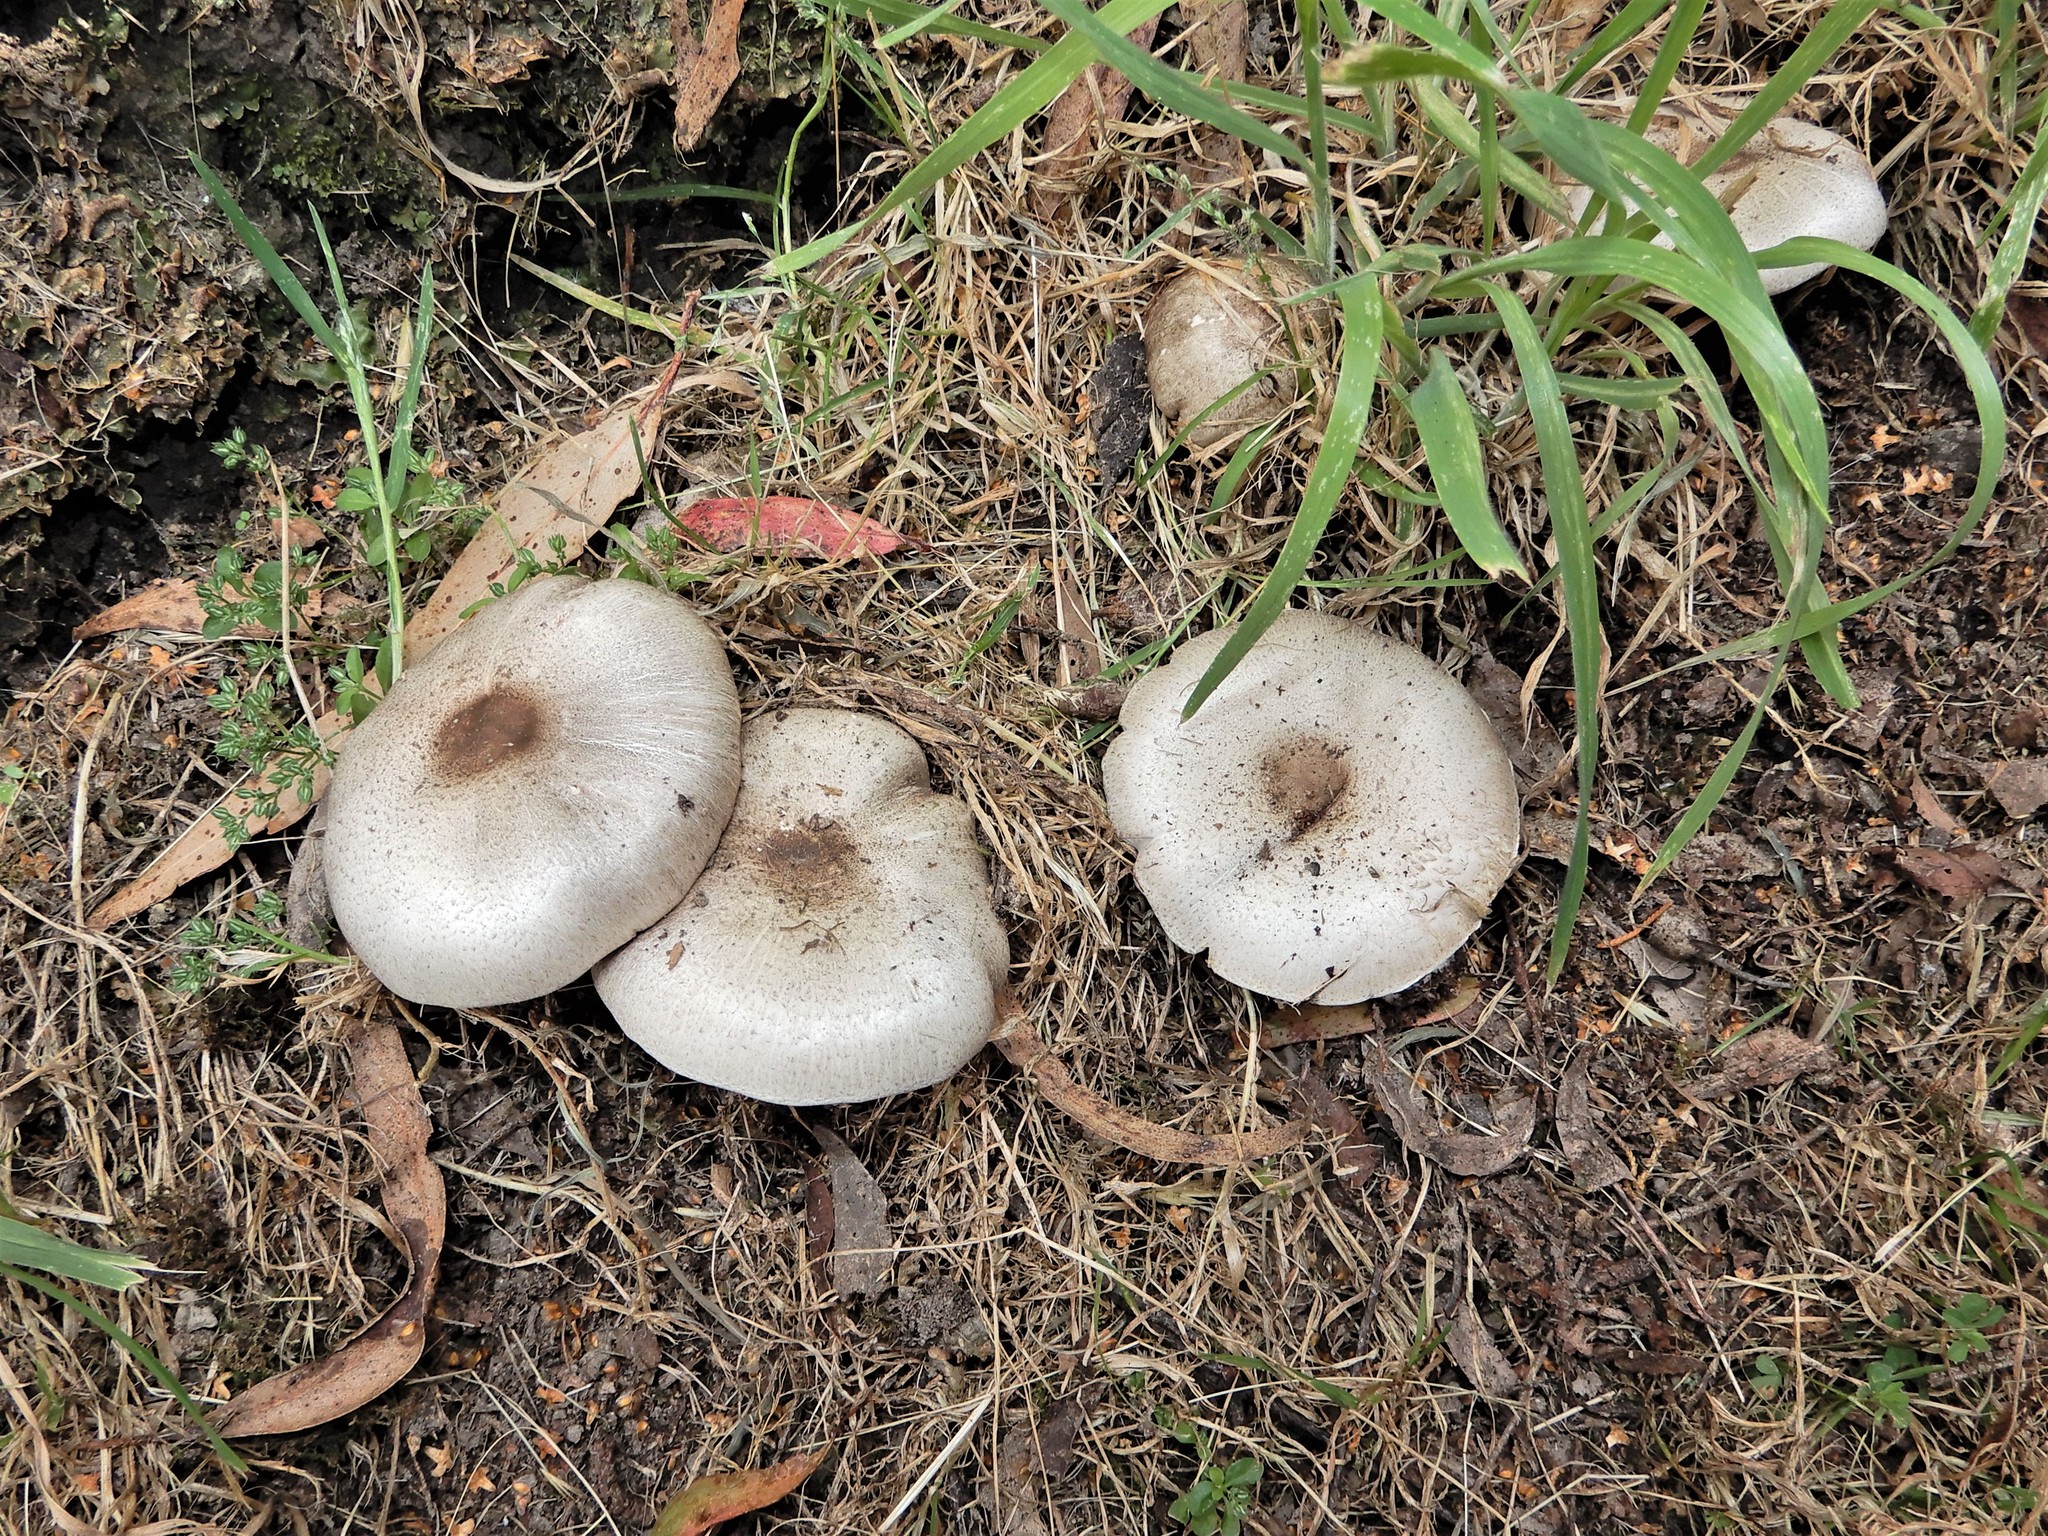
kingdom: Fungi
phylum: Basidiomycota
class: Agaricomycetes
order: Agaricales
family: Agaricaceae
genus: Agaricus
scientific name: Agaricus
